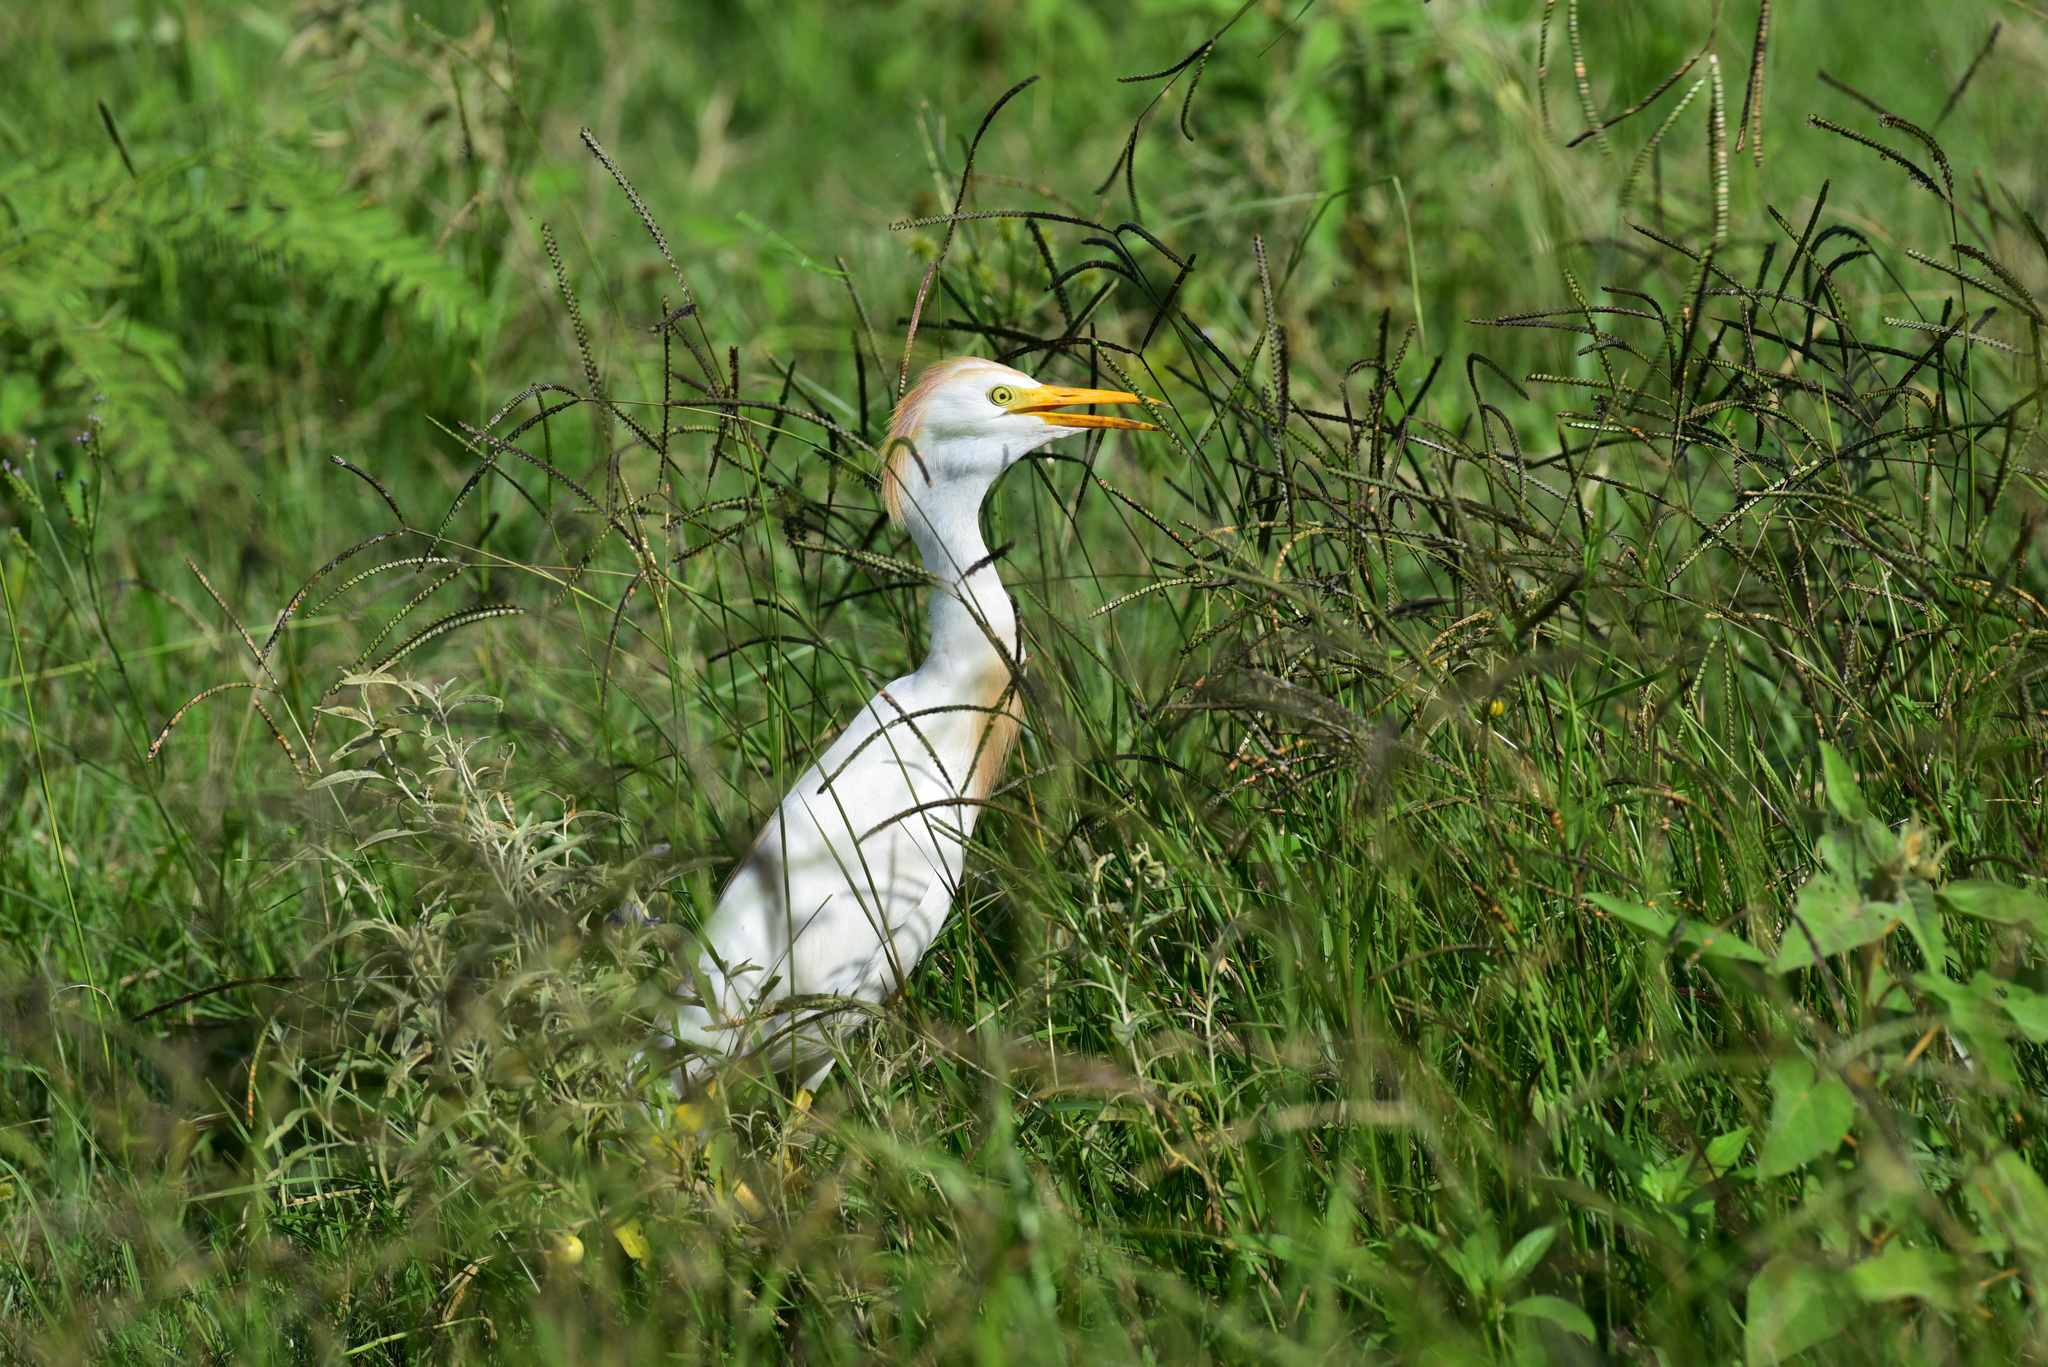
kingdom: Animalia
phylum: Chordata
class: Aves
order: Pelecaniformes
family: Ardeidae
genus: Bubulcus
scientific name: Bubulcus ibis
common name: Cattle egret
